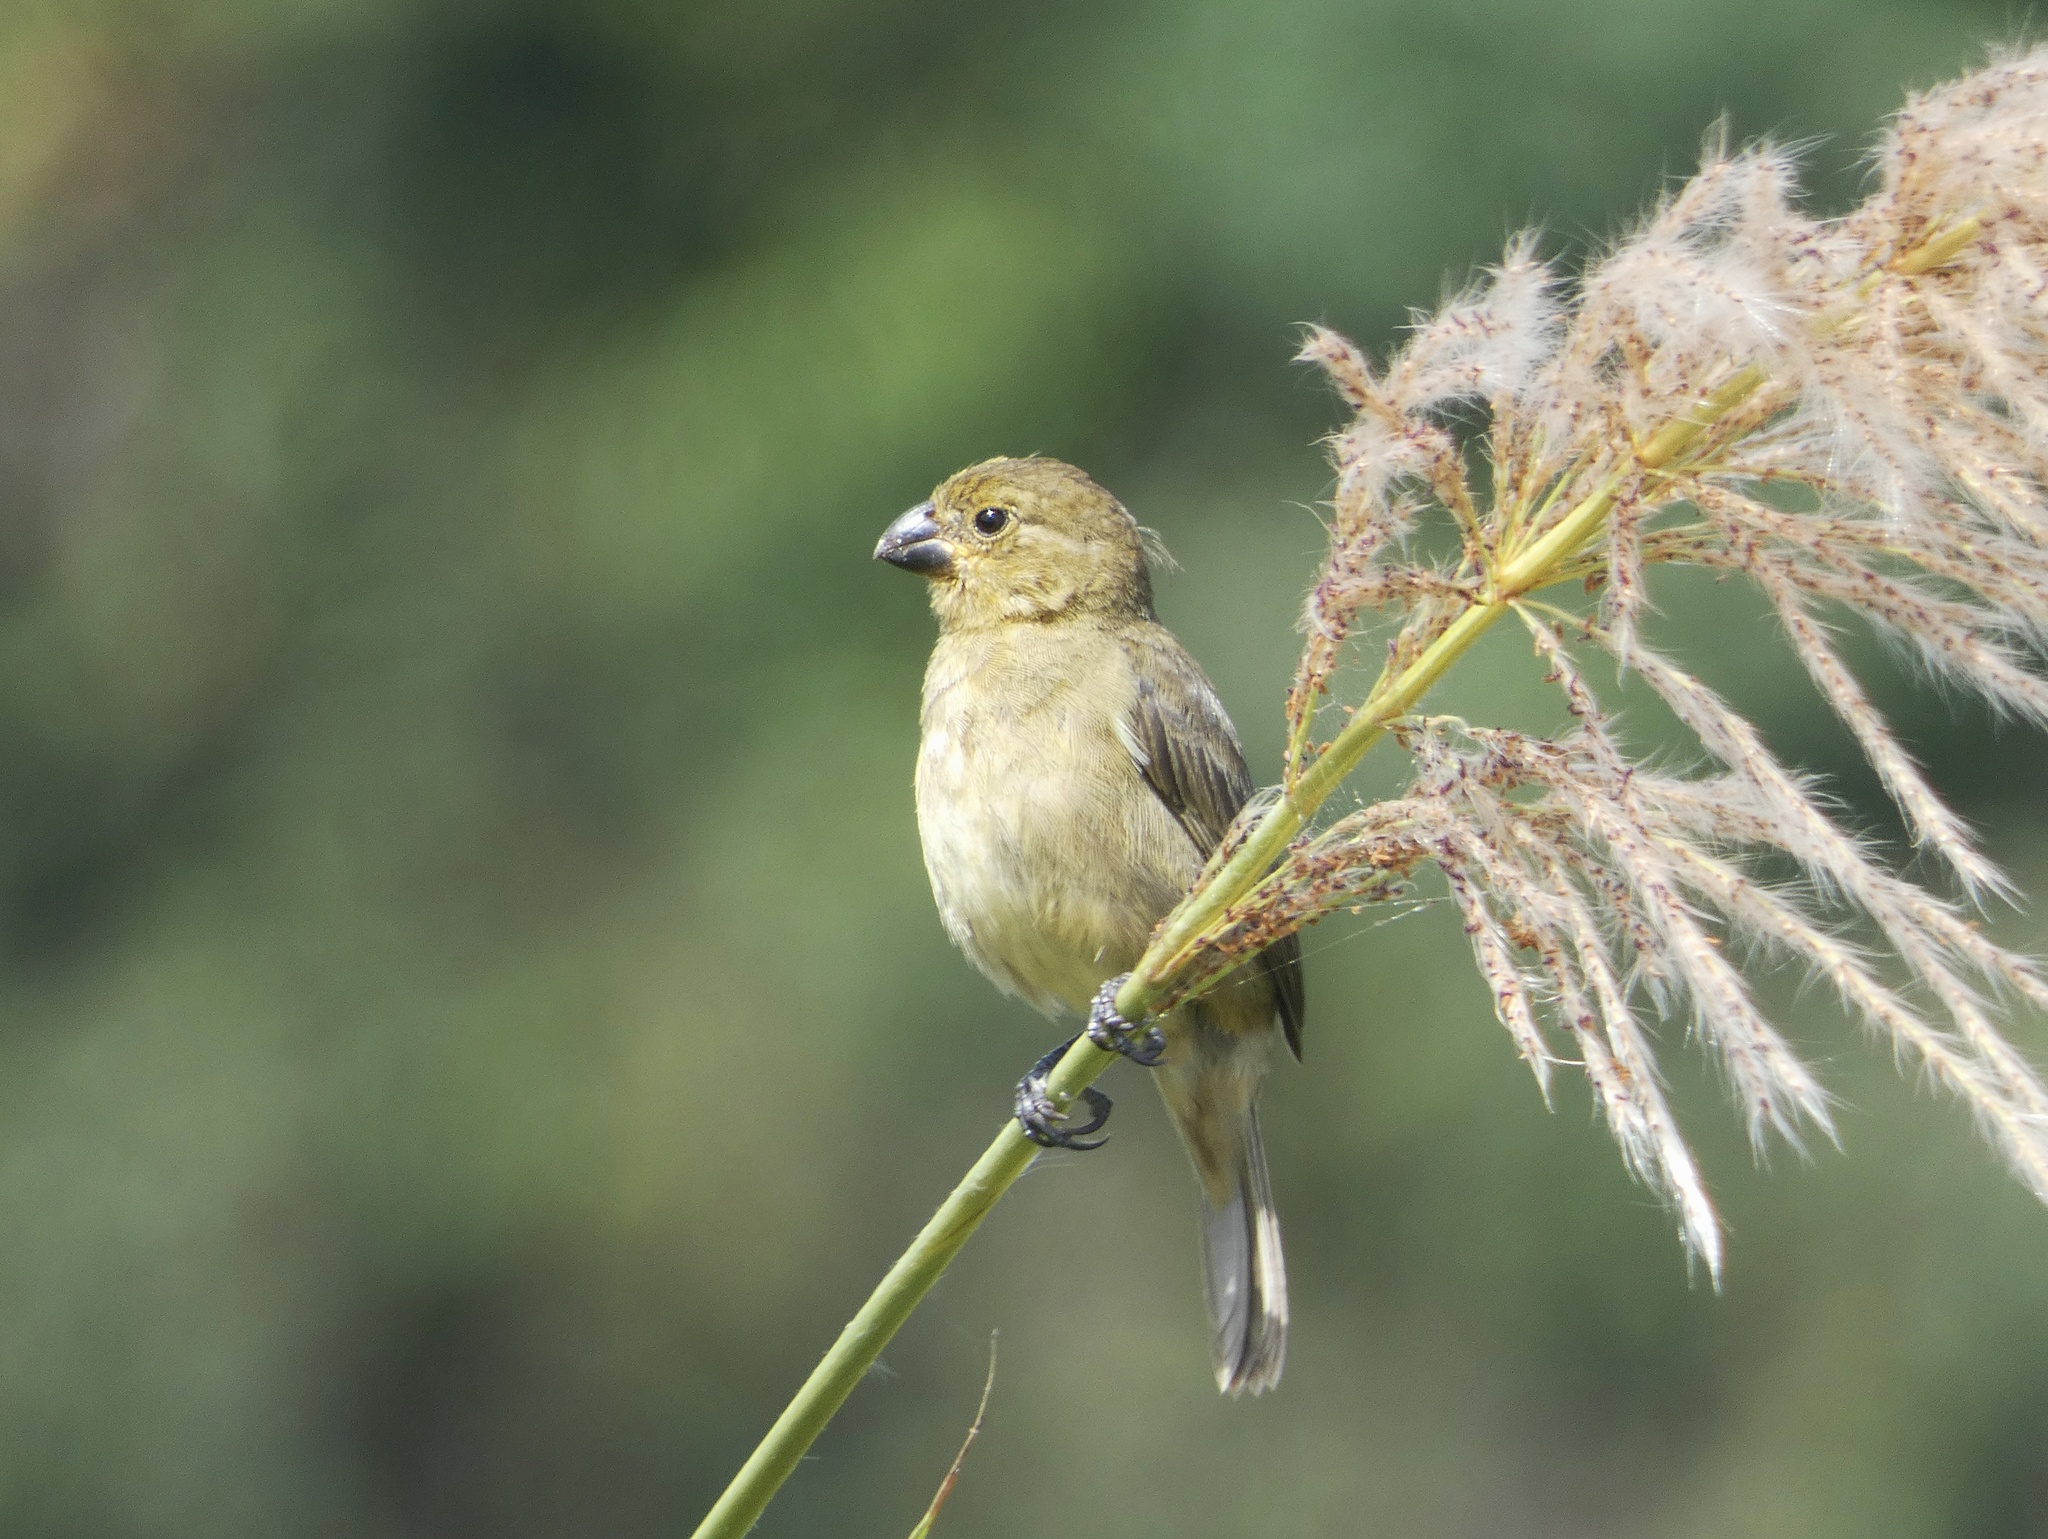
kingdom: Animalia
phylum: Chordata
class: Aves
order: Passeriformes
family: Thraupidae
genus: Sporophila
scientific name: Sporophila nigricollis
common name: Yellow-bellied seedeater
